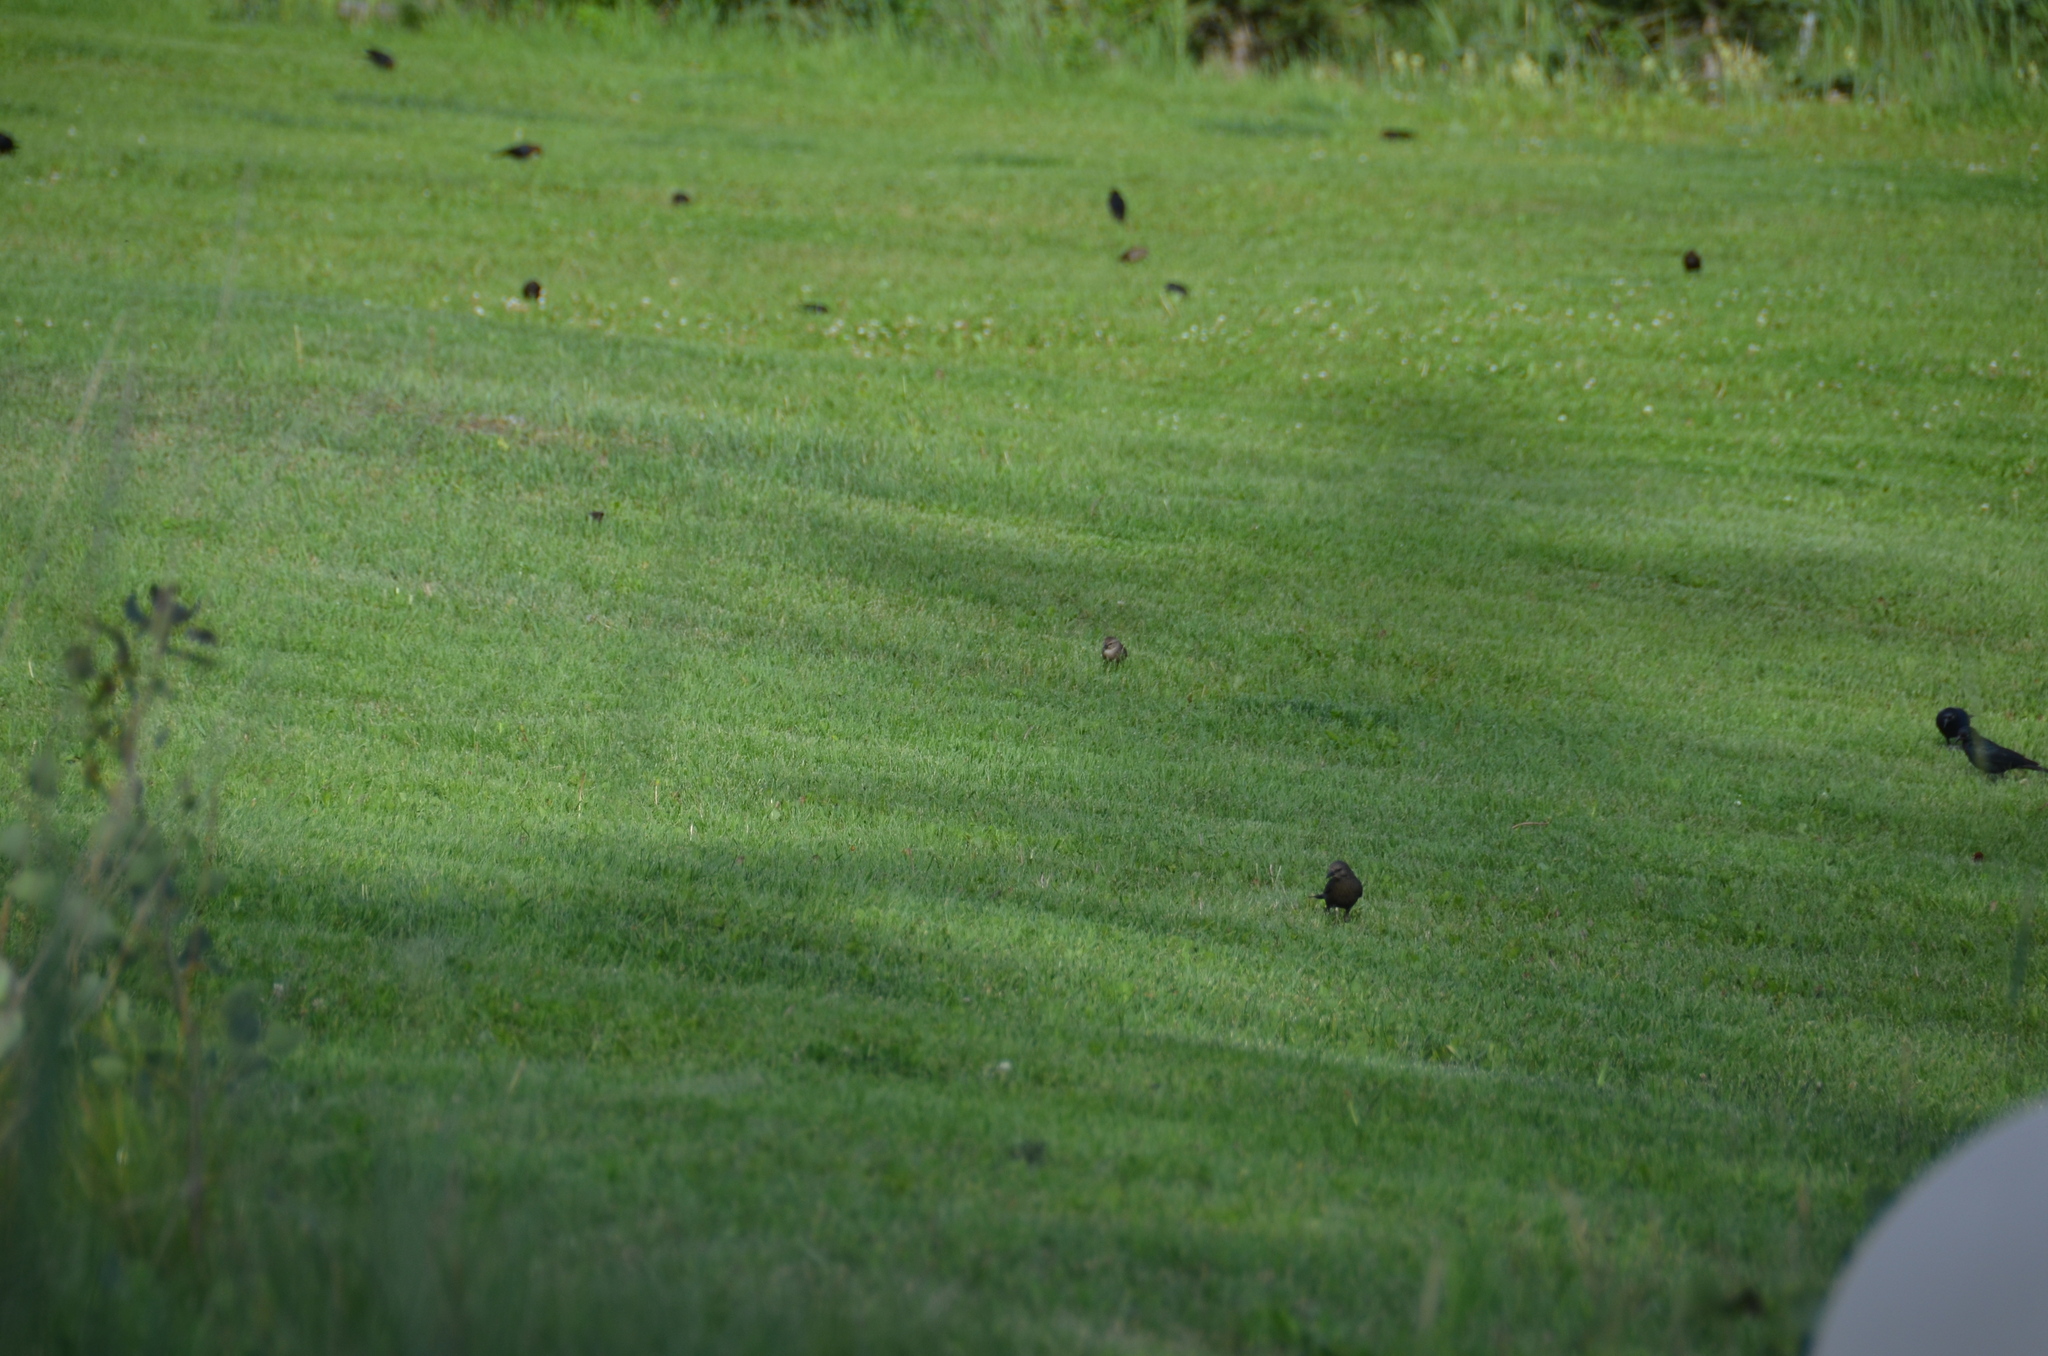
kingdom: Animalia
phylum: Chordata
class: Aves
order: Passeriformes
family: Icteridae
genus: Euphagus
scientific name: Euphagus cyanocephalus
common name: Brewer's blackbird
